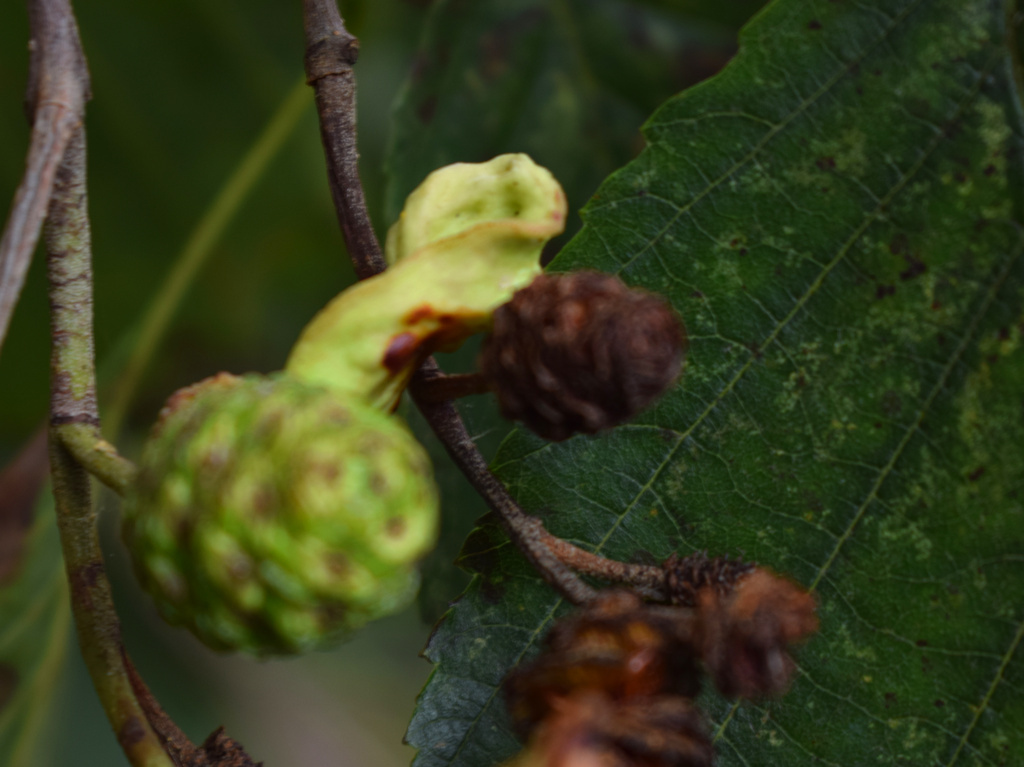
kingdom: Fungi
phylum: Ascomycota
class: Taphrinomycetes
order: Taphrinales
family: Taphrinaceae
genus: Taphrina
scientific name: Taphrina alni
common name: Alder tongue
